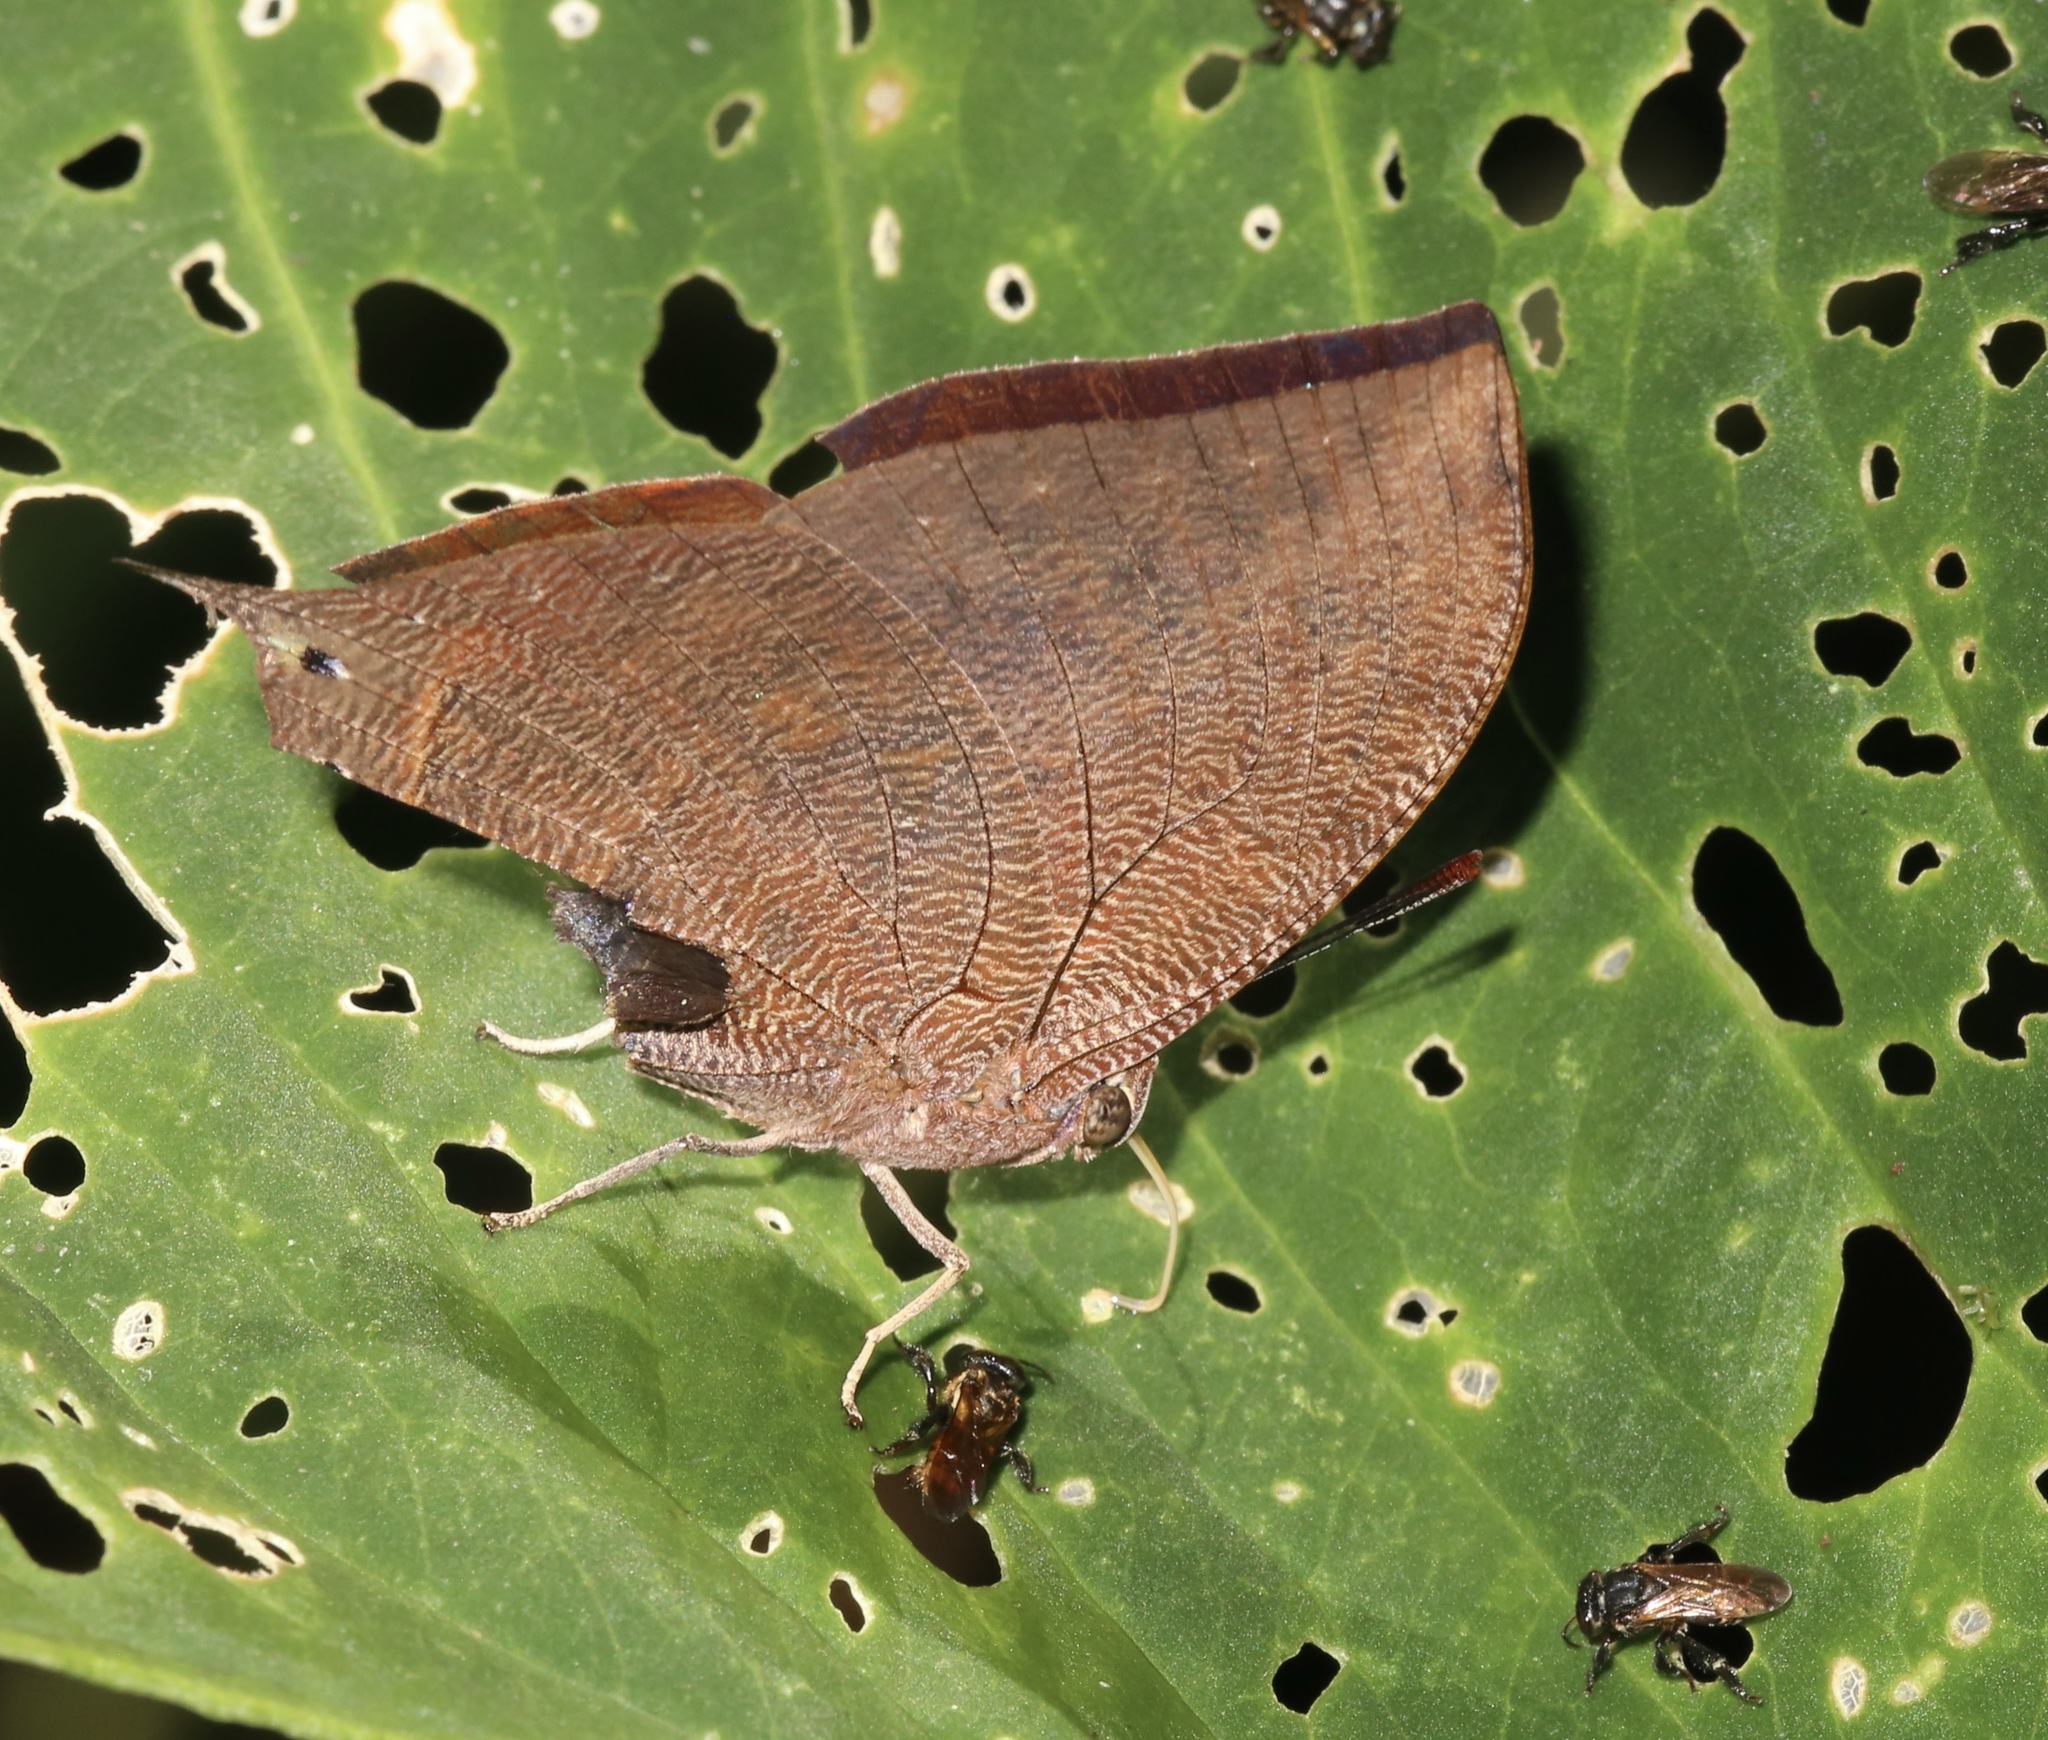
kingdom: Animalia
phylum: Arthropoda
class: Insecta
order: Lepidoptera
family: Nymphalidae
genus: Fountainea
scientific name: Fountainea
